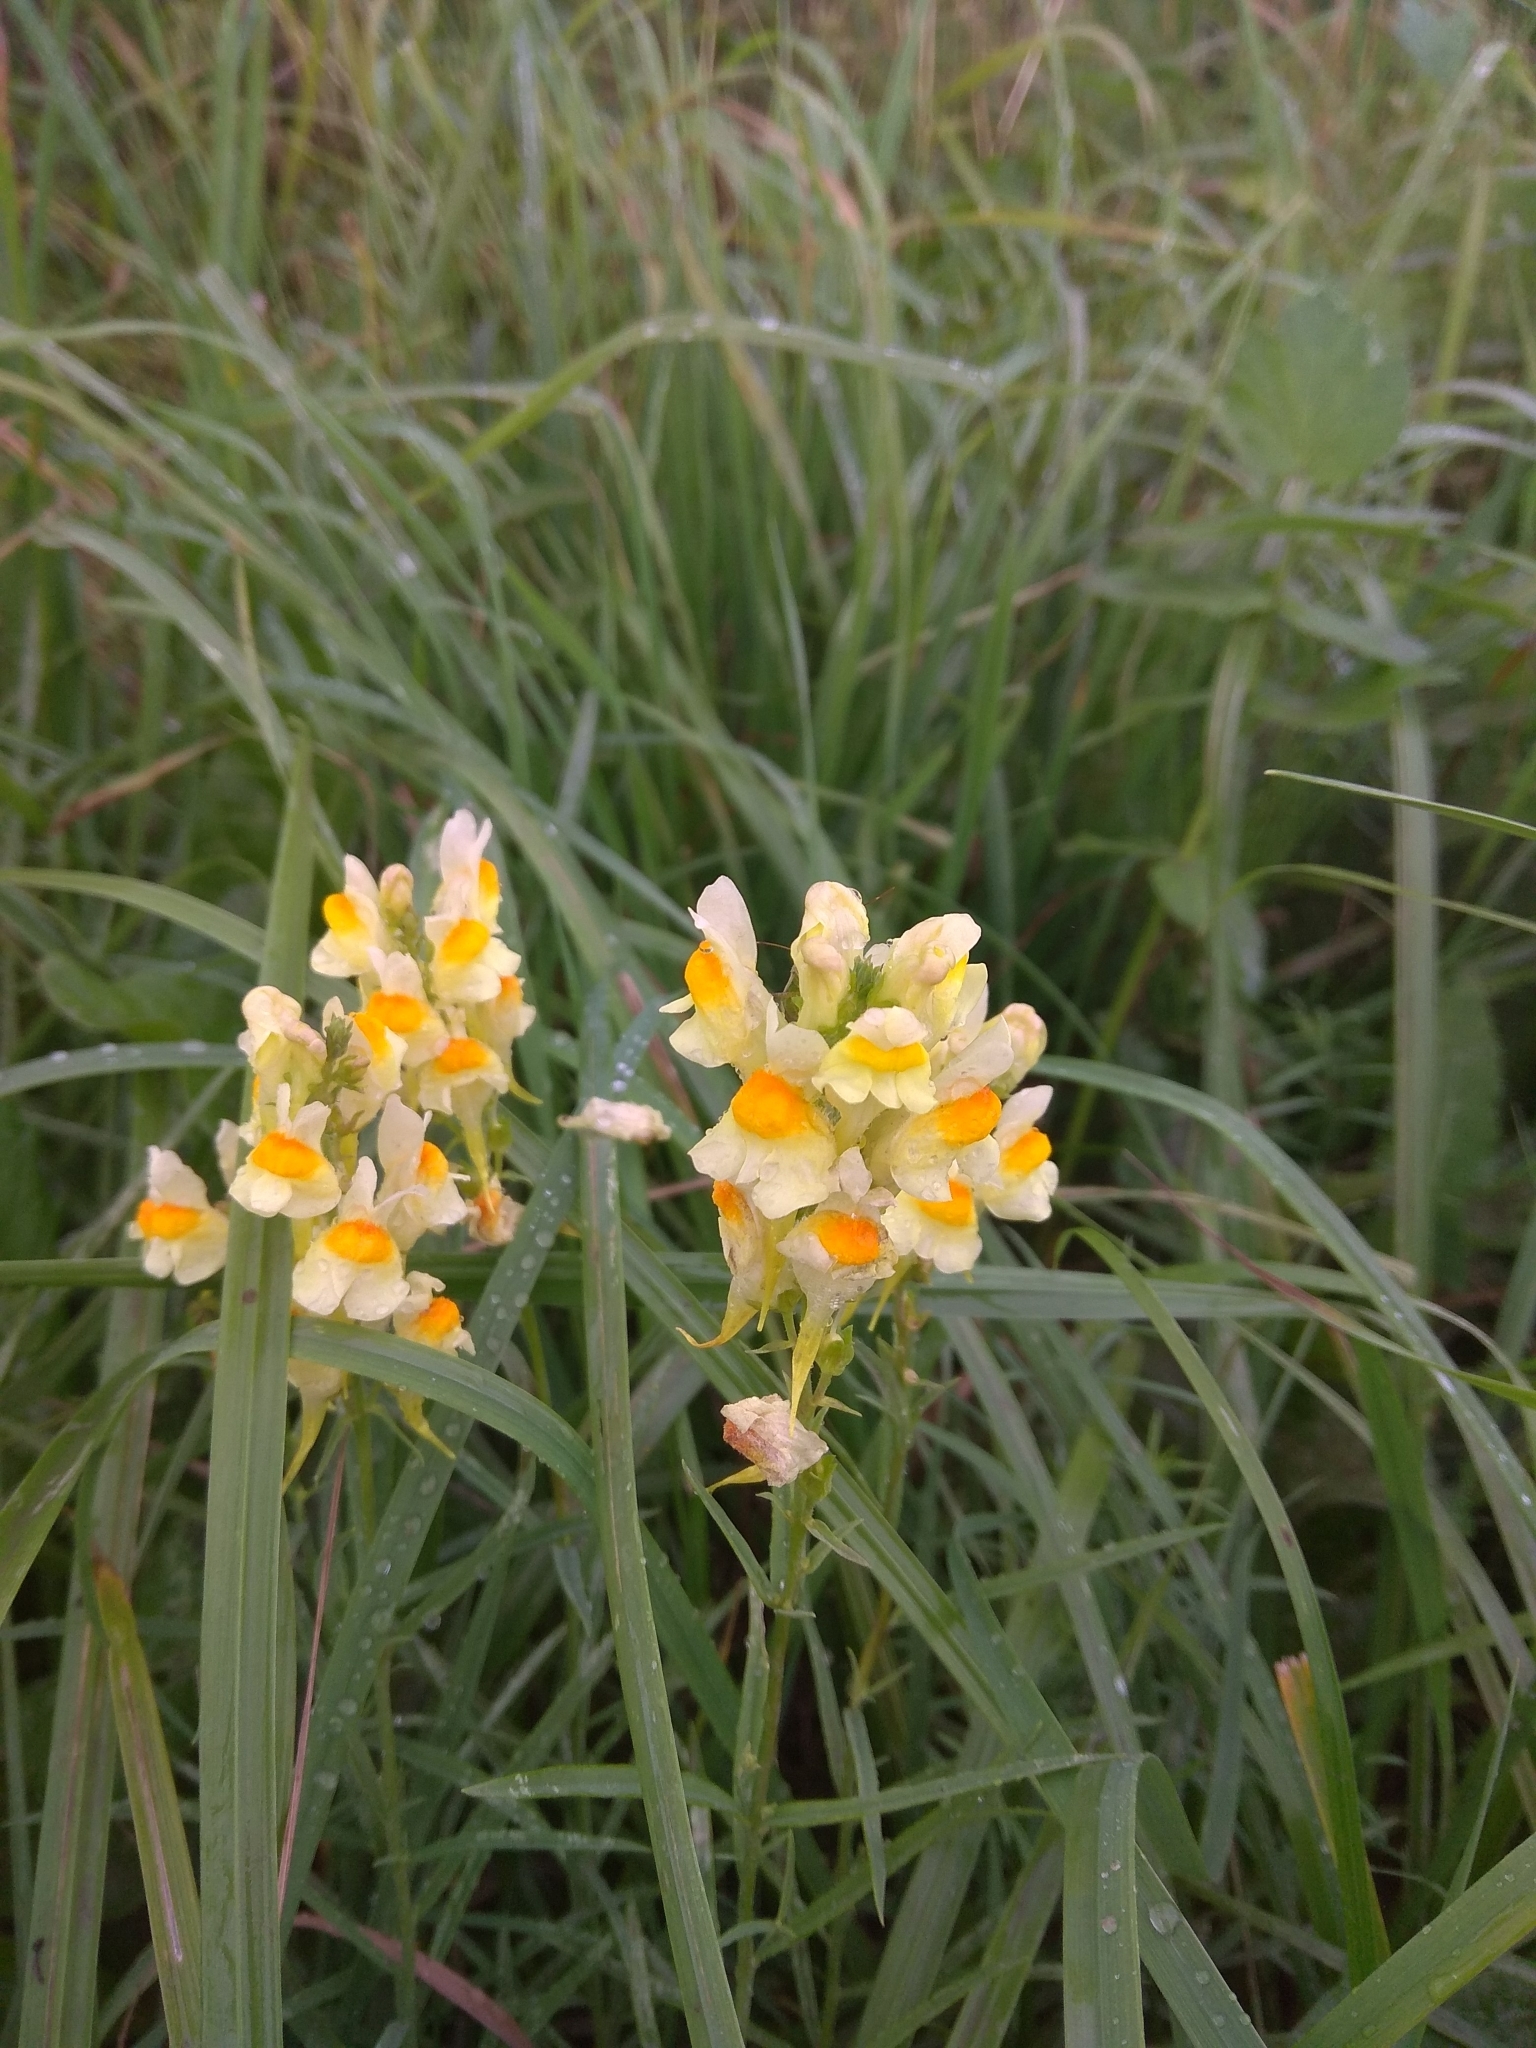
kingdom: Plantae
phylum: Tracheophyta
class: Magnoliopsida
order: Lamiales
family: Plantaginaceae
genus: Linaria
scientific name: Linaria vulgaris
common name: Butter and eggs
